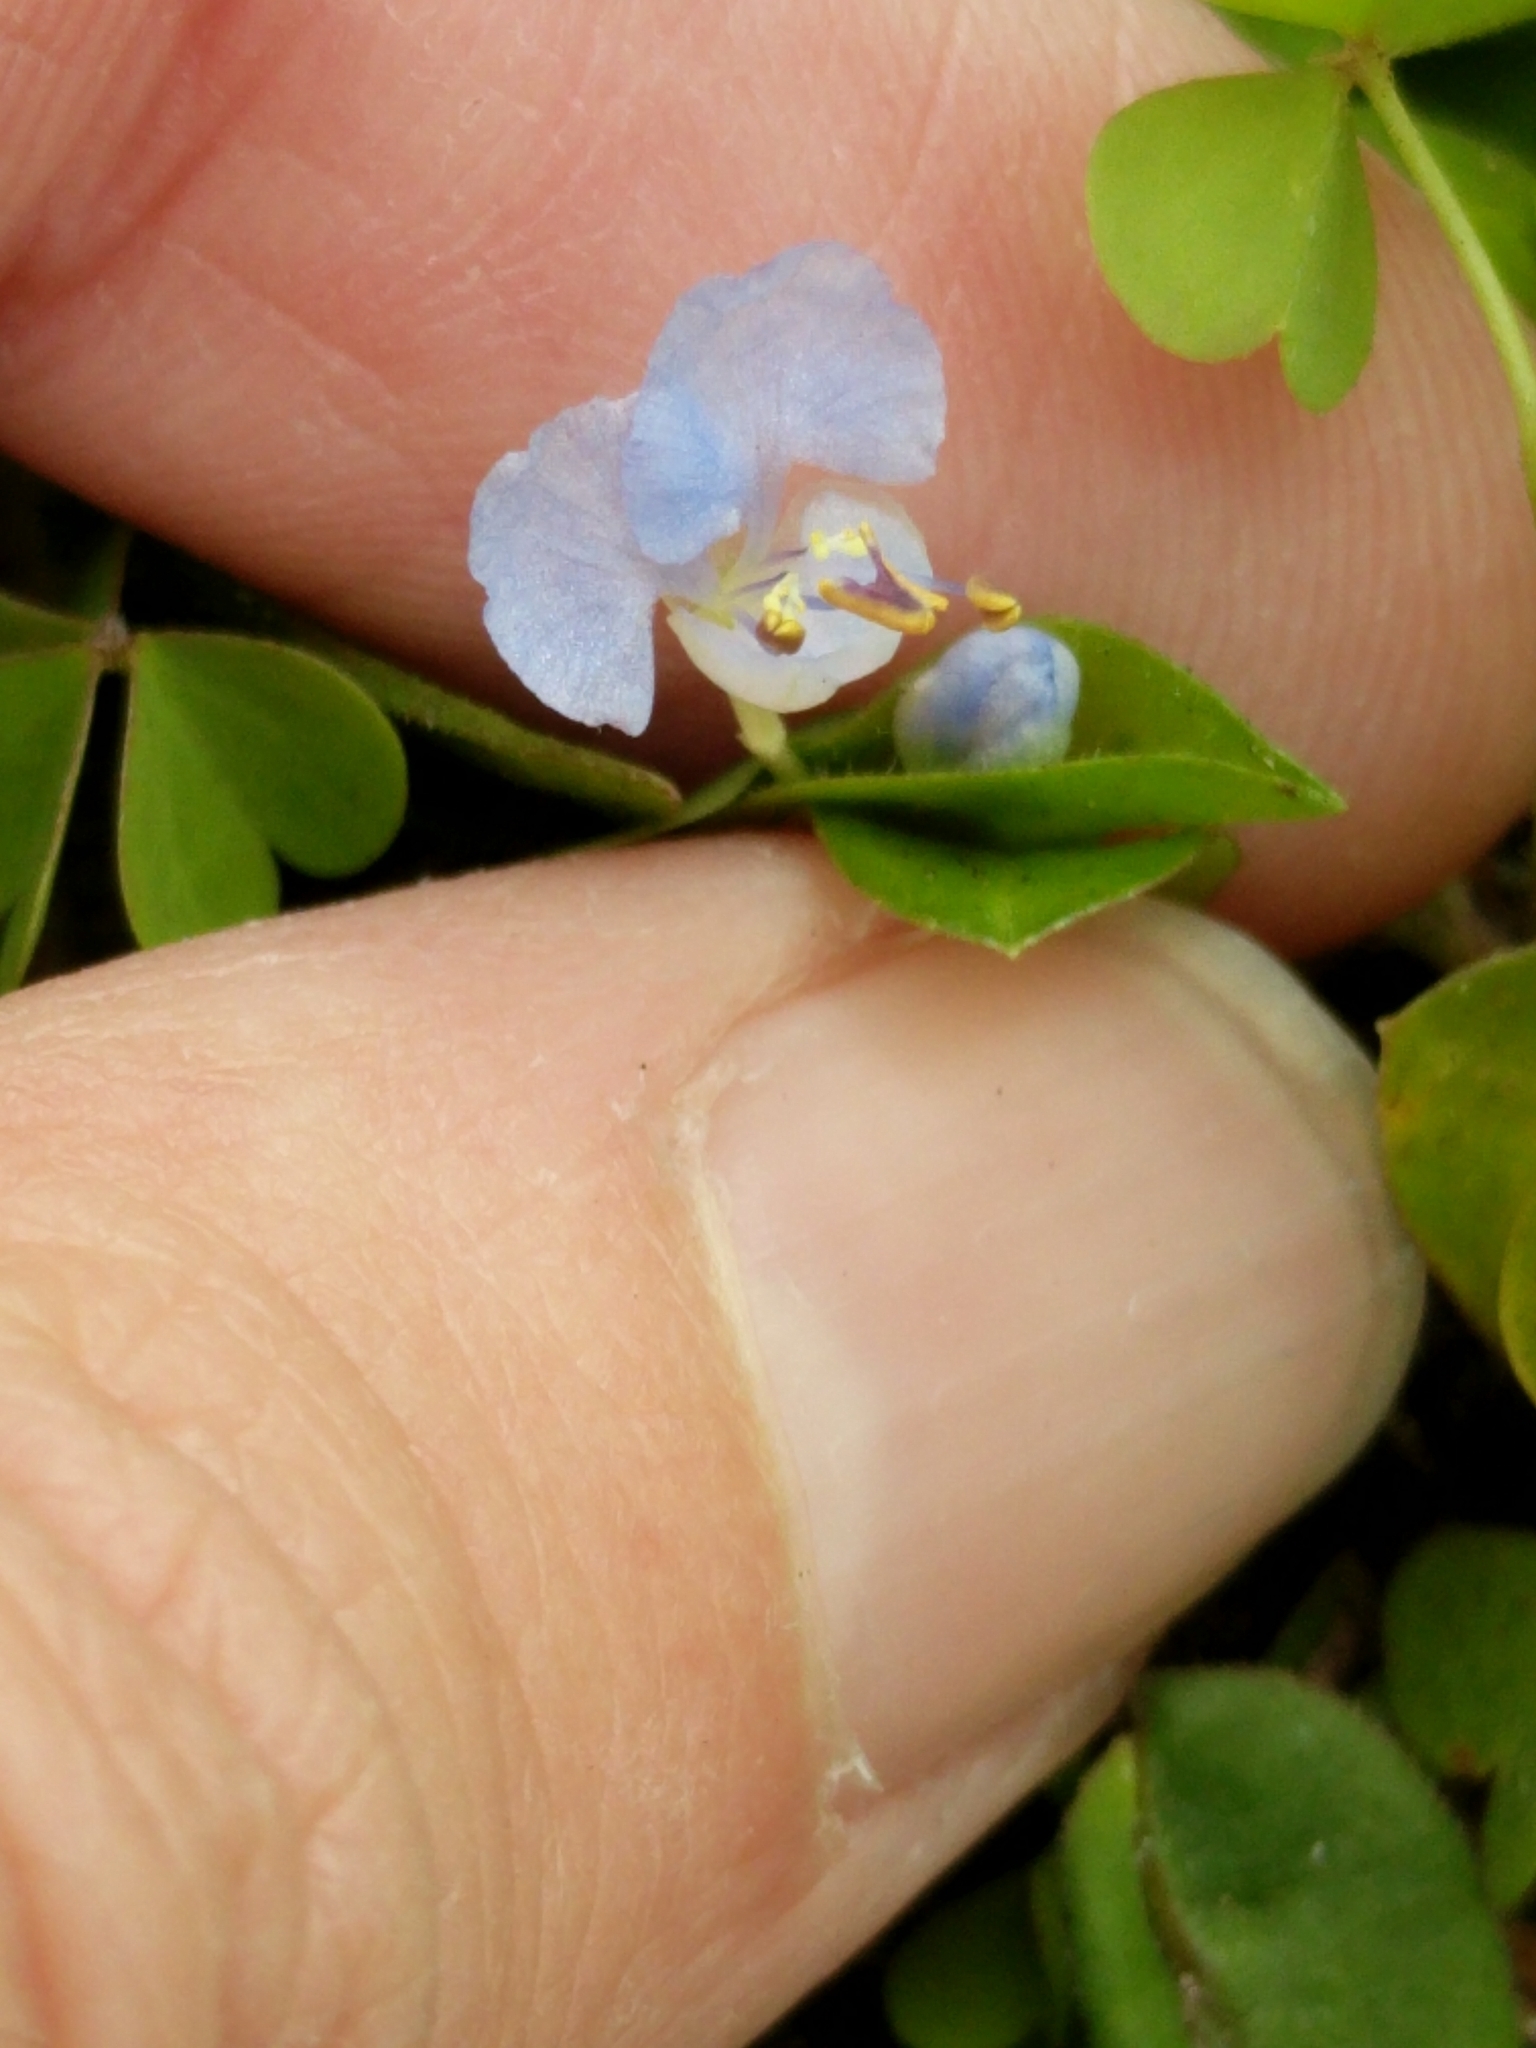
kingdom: Plantae
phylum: Tracheophyta
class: Liliopsida
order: Commelinales
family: Commelinaceae
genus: Commelina
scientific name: Commelina diffusa
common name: Climbing dayflower
